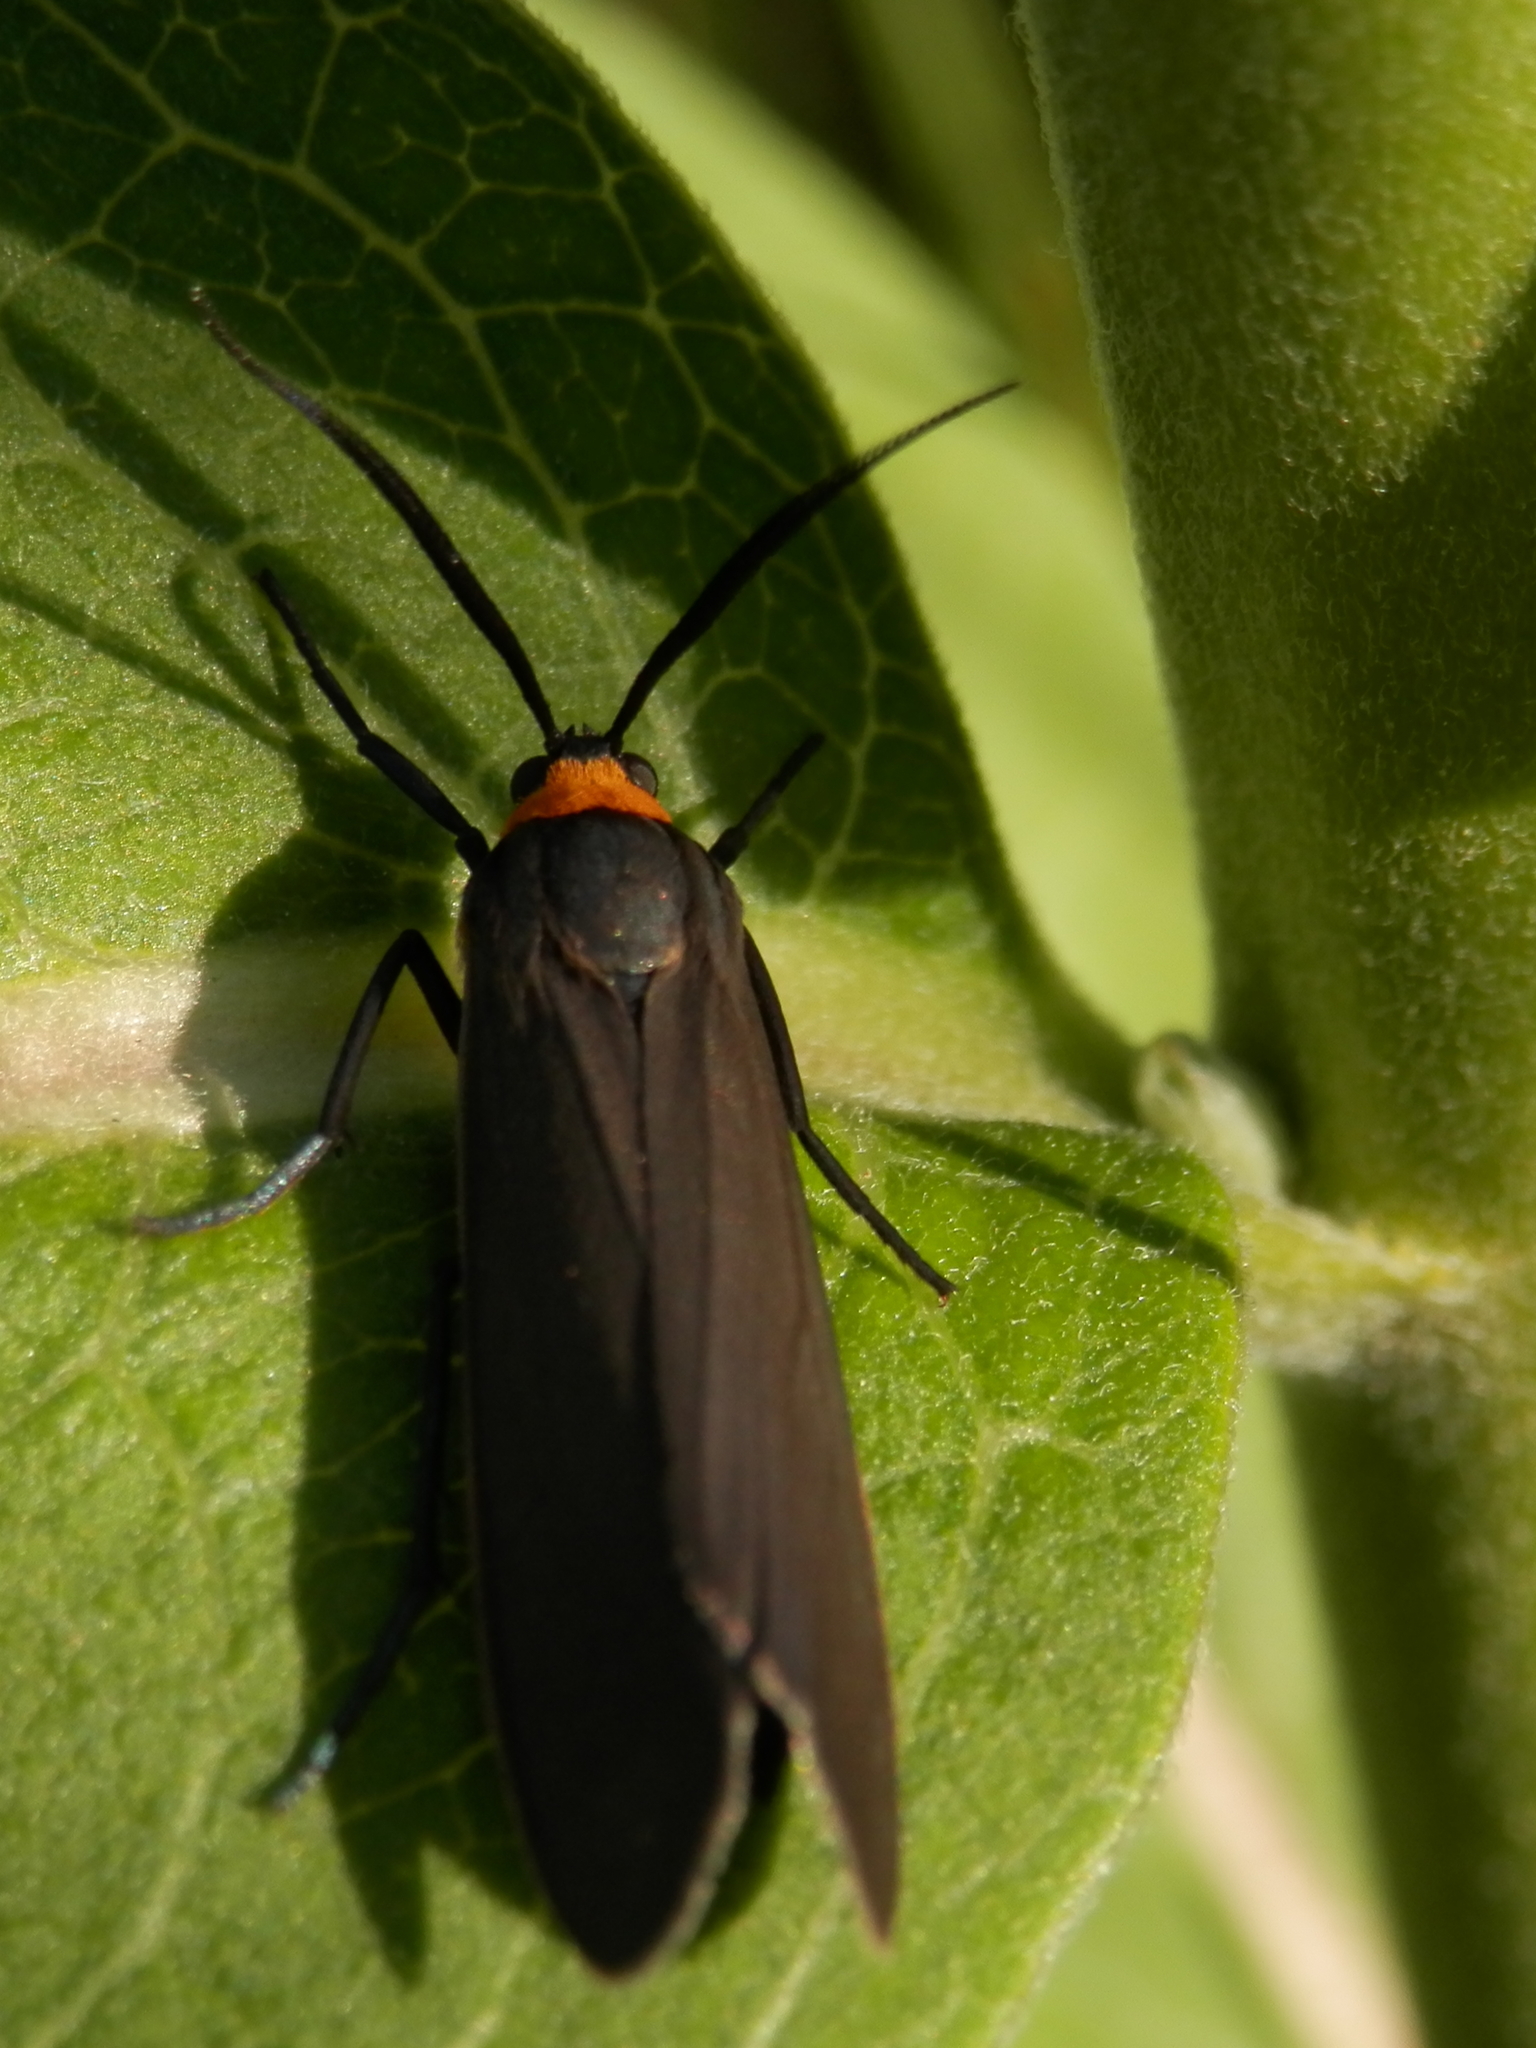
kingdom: Animalia
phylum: Arthropoda
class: Insecta
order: Lepidoptera
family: Erebidae
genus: Cisseps
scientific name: Cisseps fulvicollis
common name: Yellow-collared scape moth
